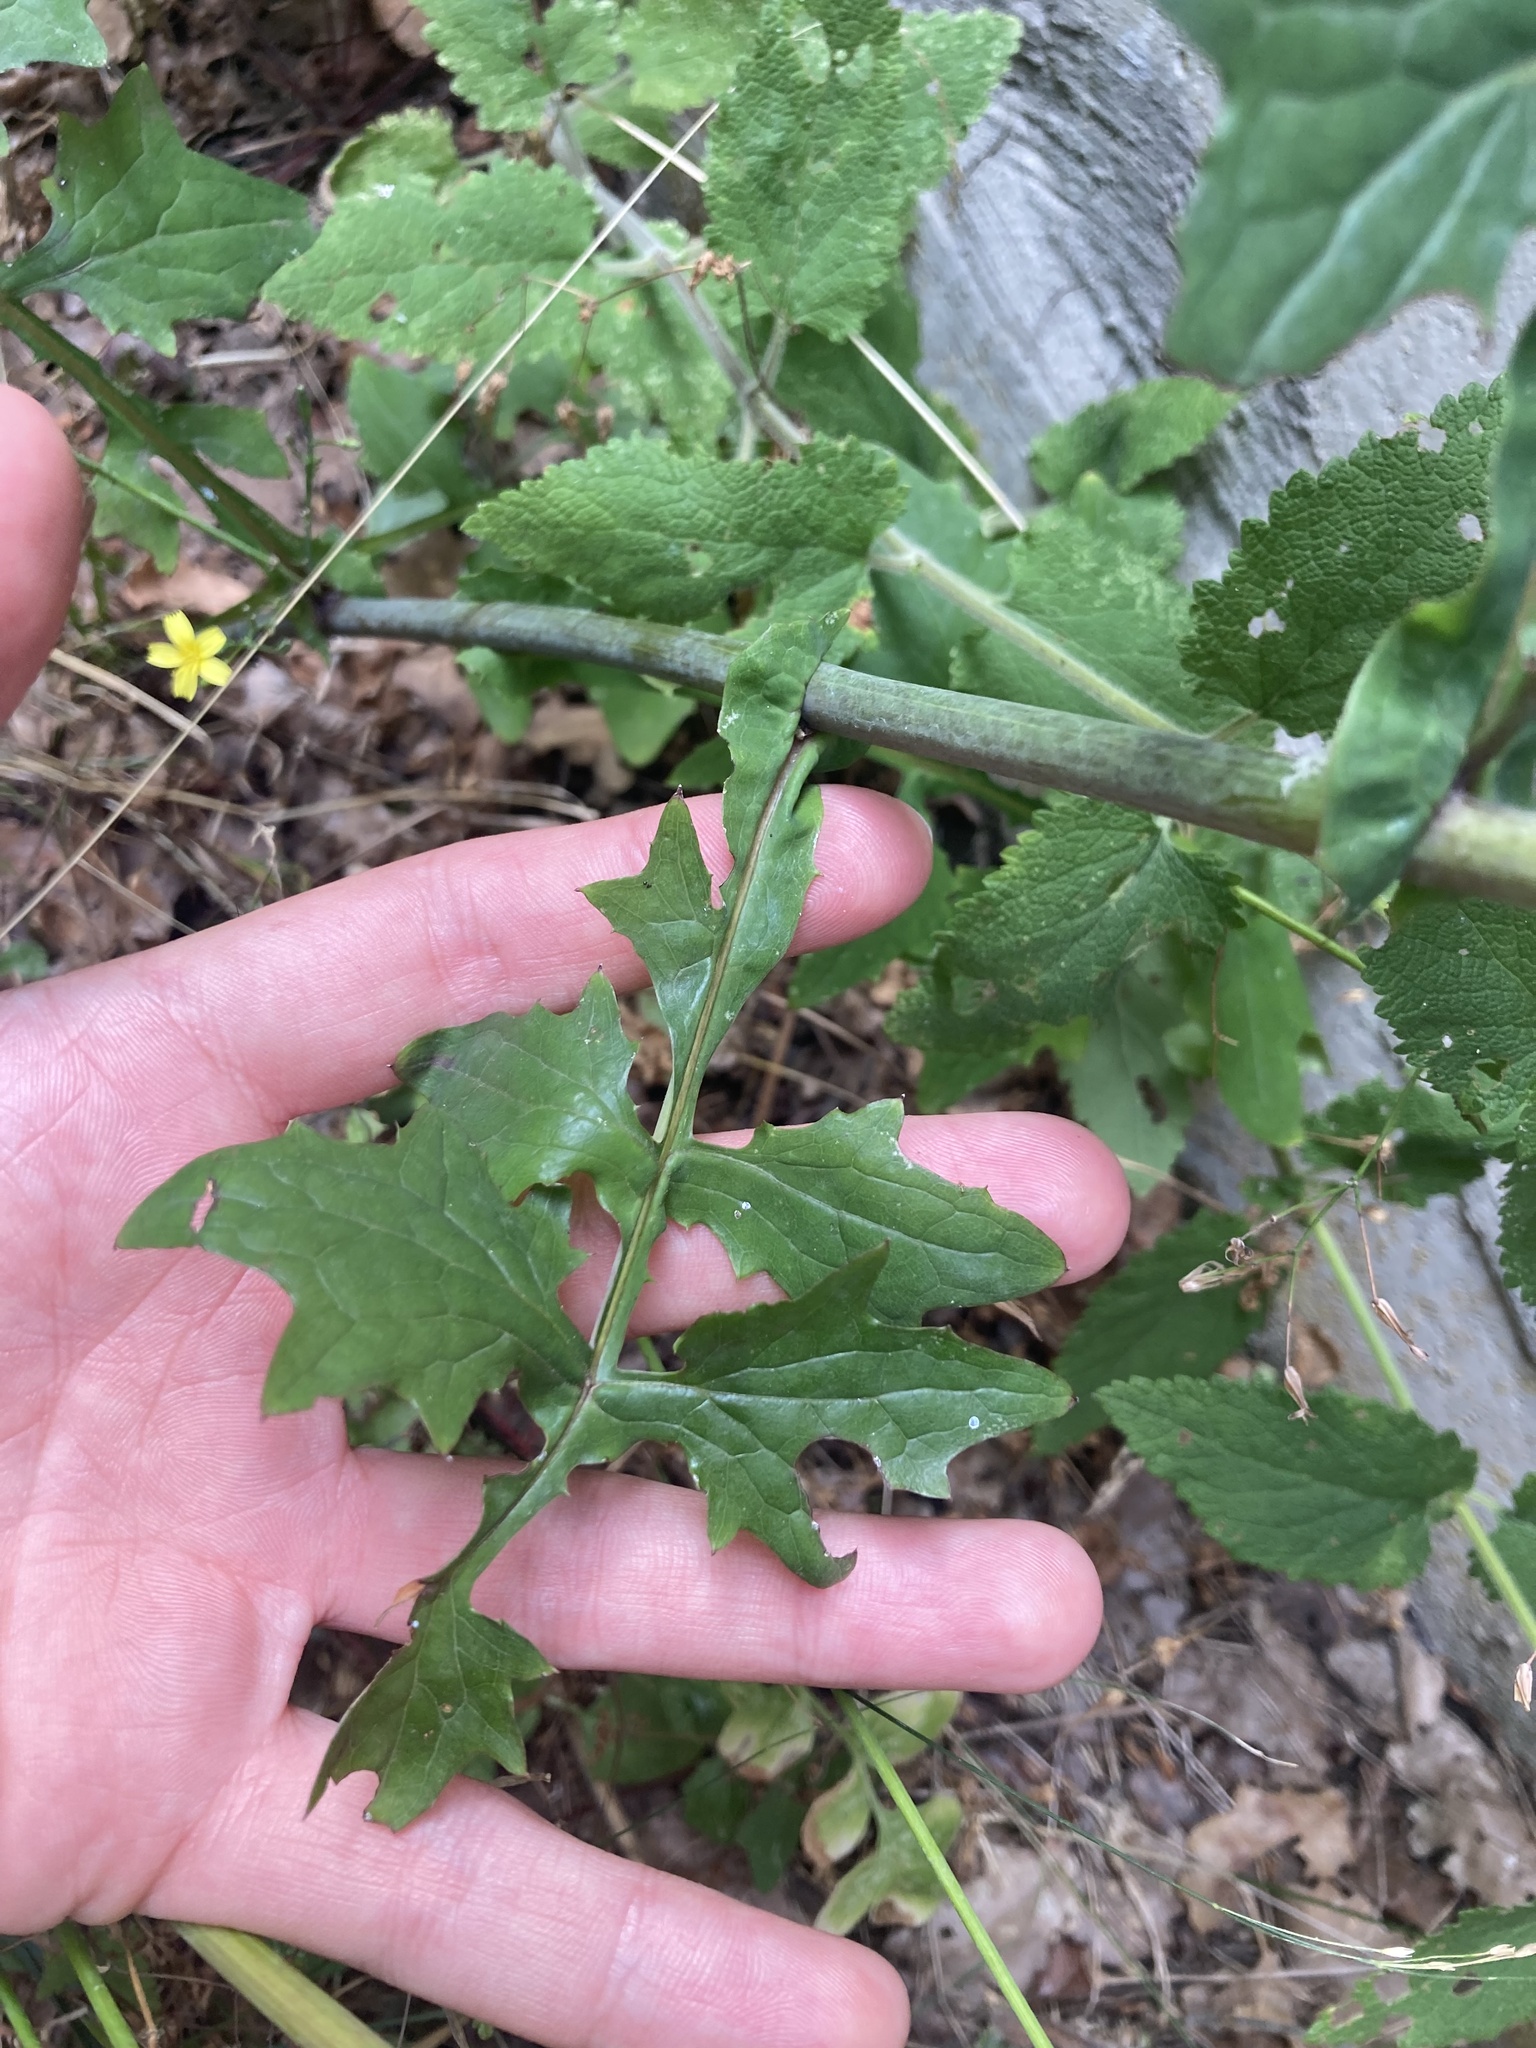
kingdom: Plantae
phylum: Tracheophyta
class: Magnoliopsida
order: Asterales
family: Asteraceae
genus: Mycelis
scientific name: Mycelis muralis
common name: Wall lettuce
